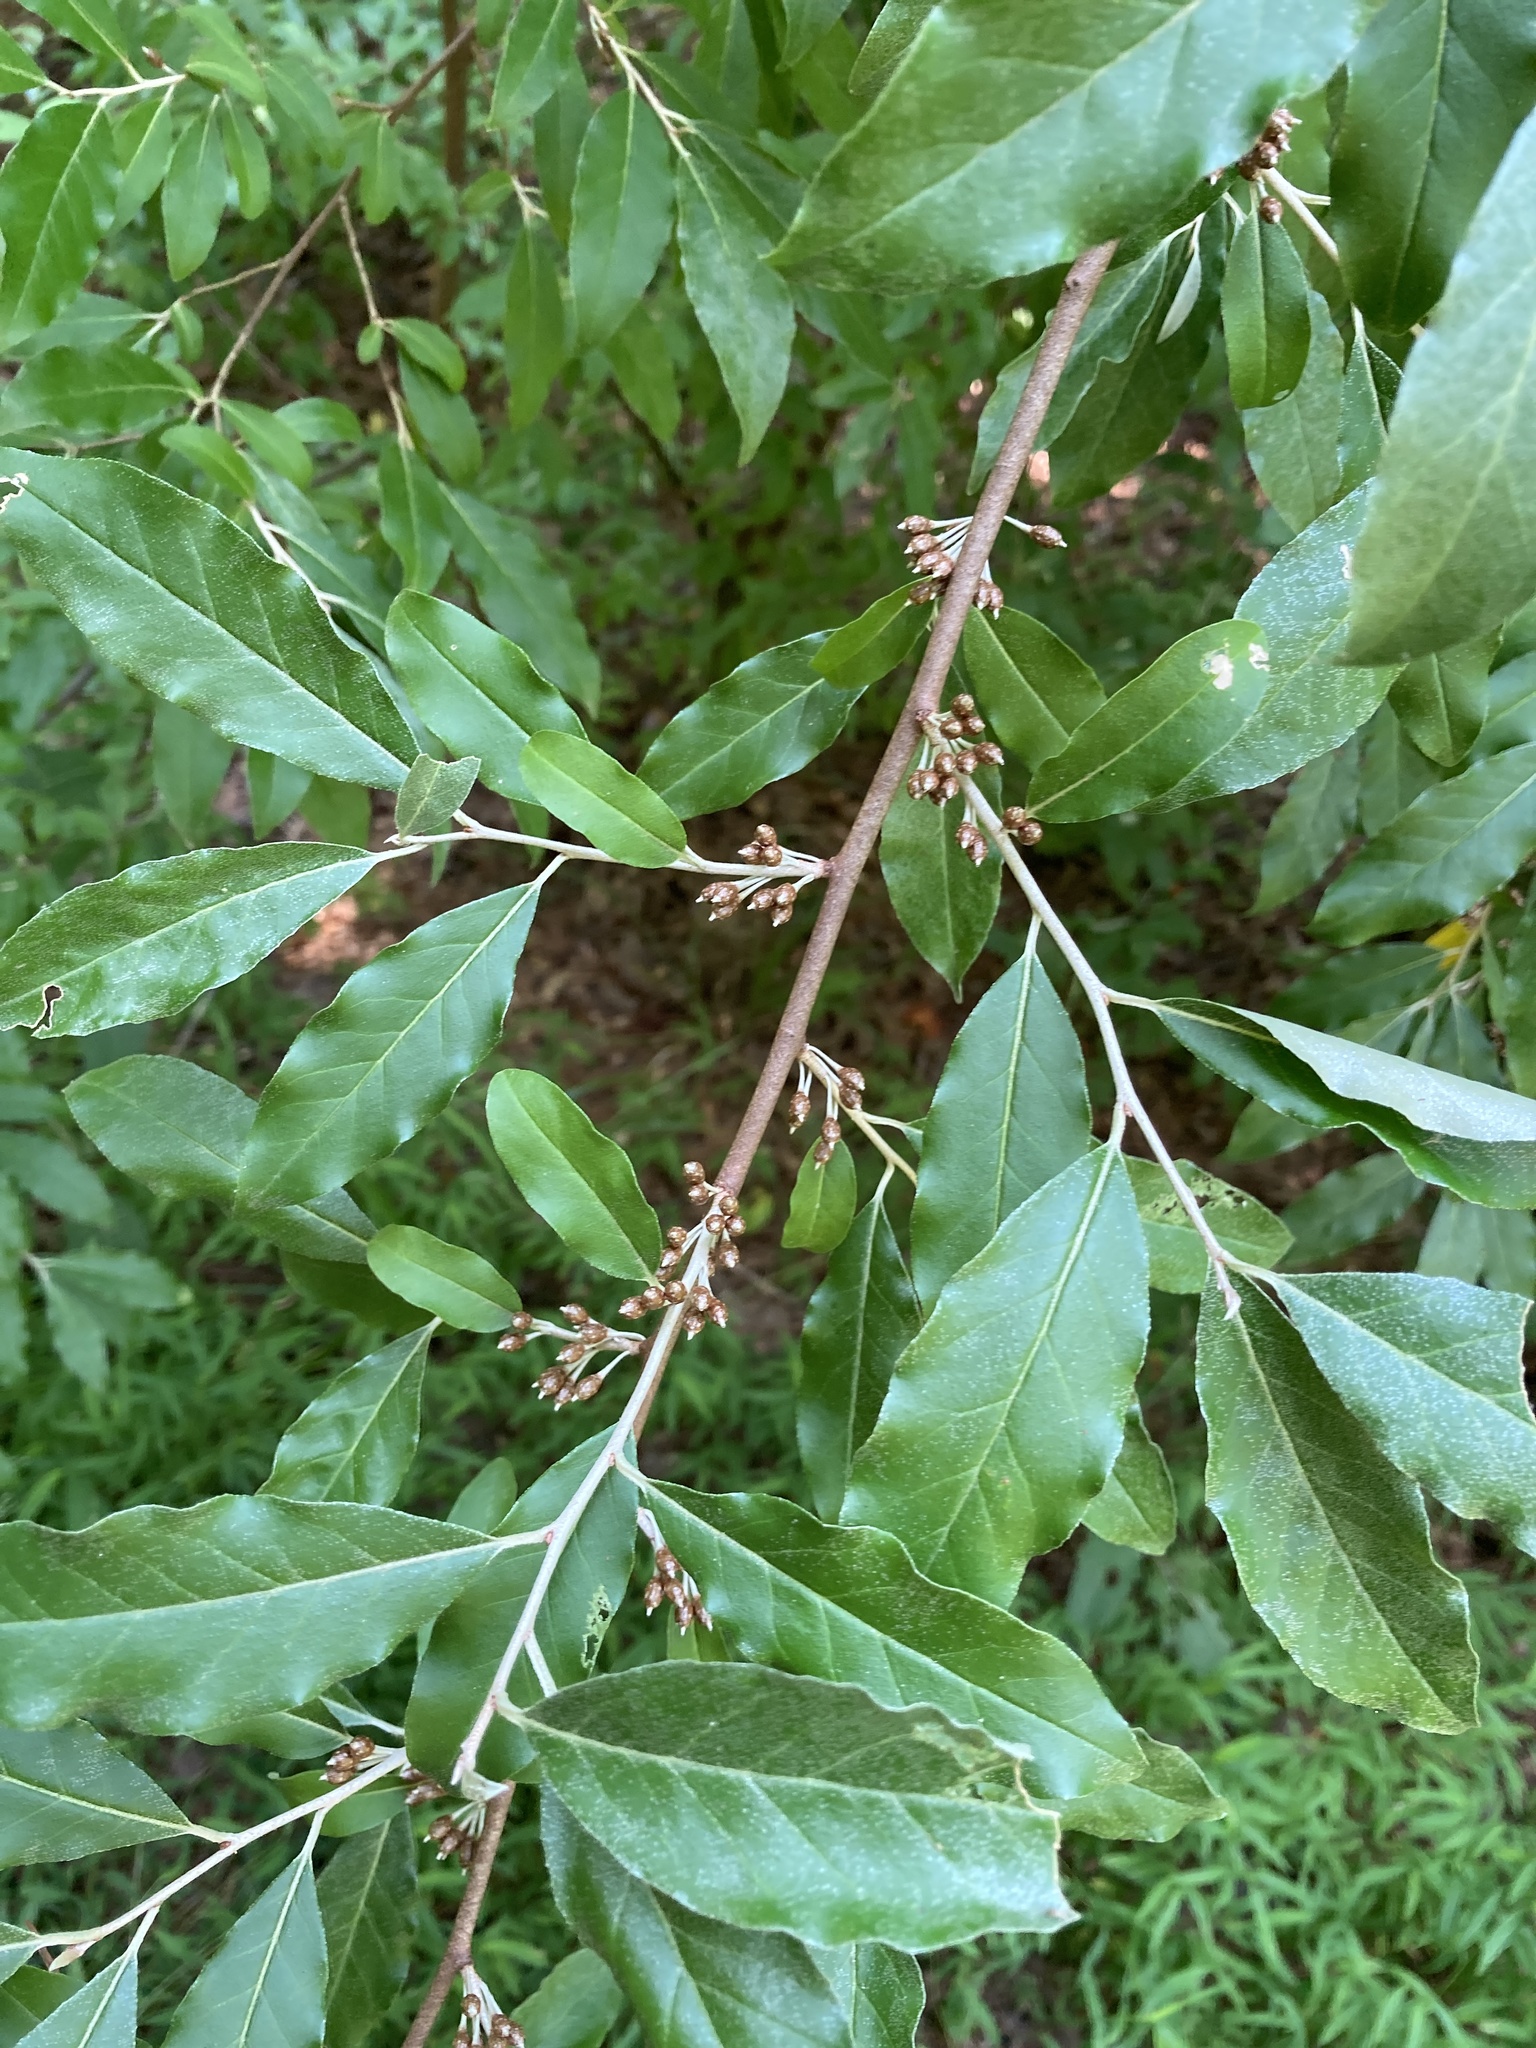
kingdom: Plantae
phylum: Tracheophyta
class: Magnoliopsida
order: Rosales
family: Elaeagnaceae
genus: Elaeagnus
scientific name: Elaeagnus umbellata
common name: Autumn olive
